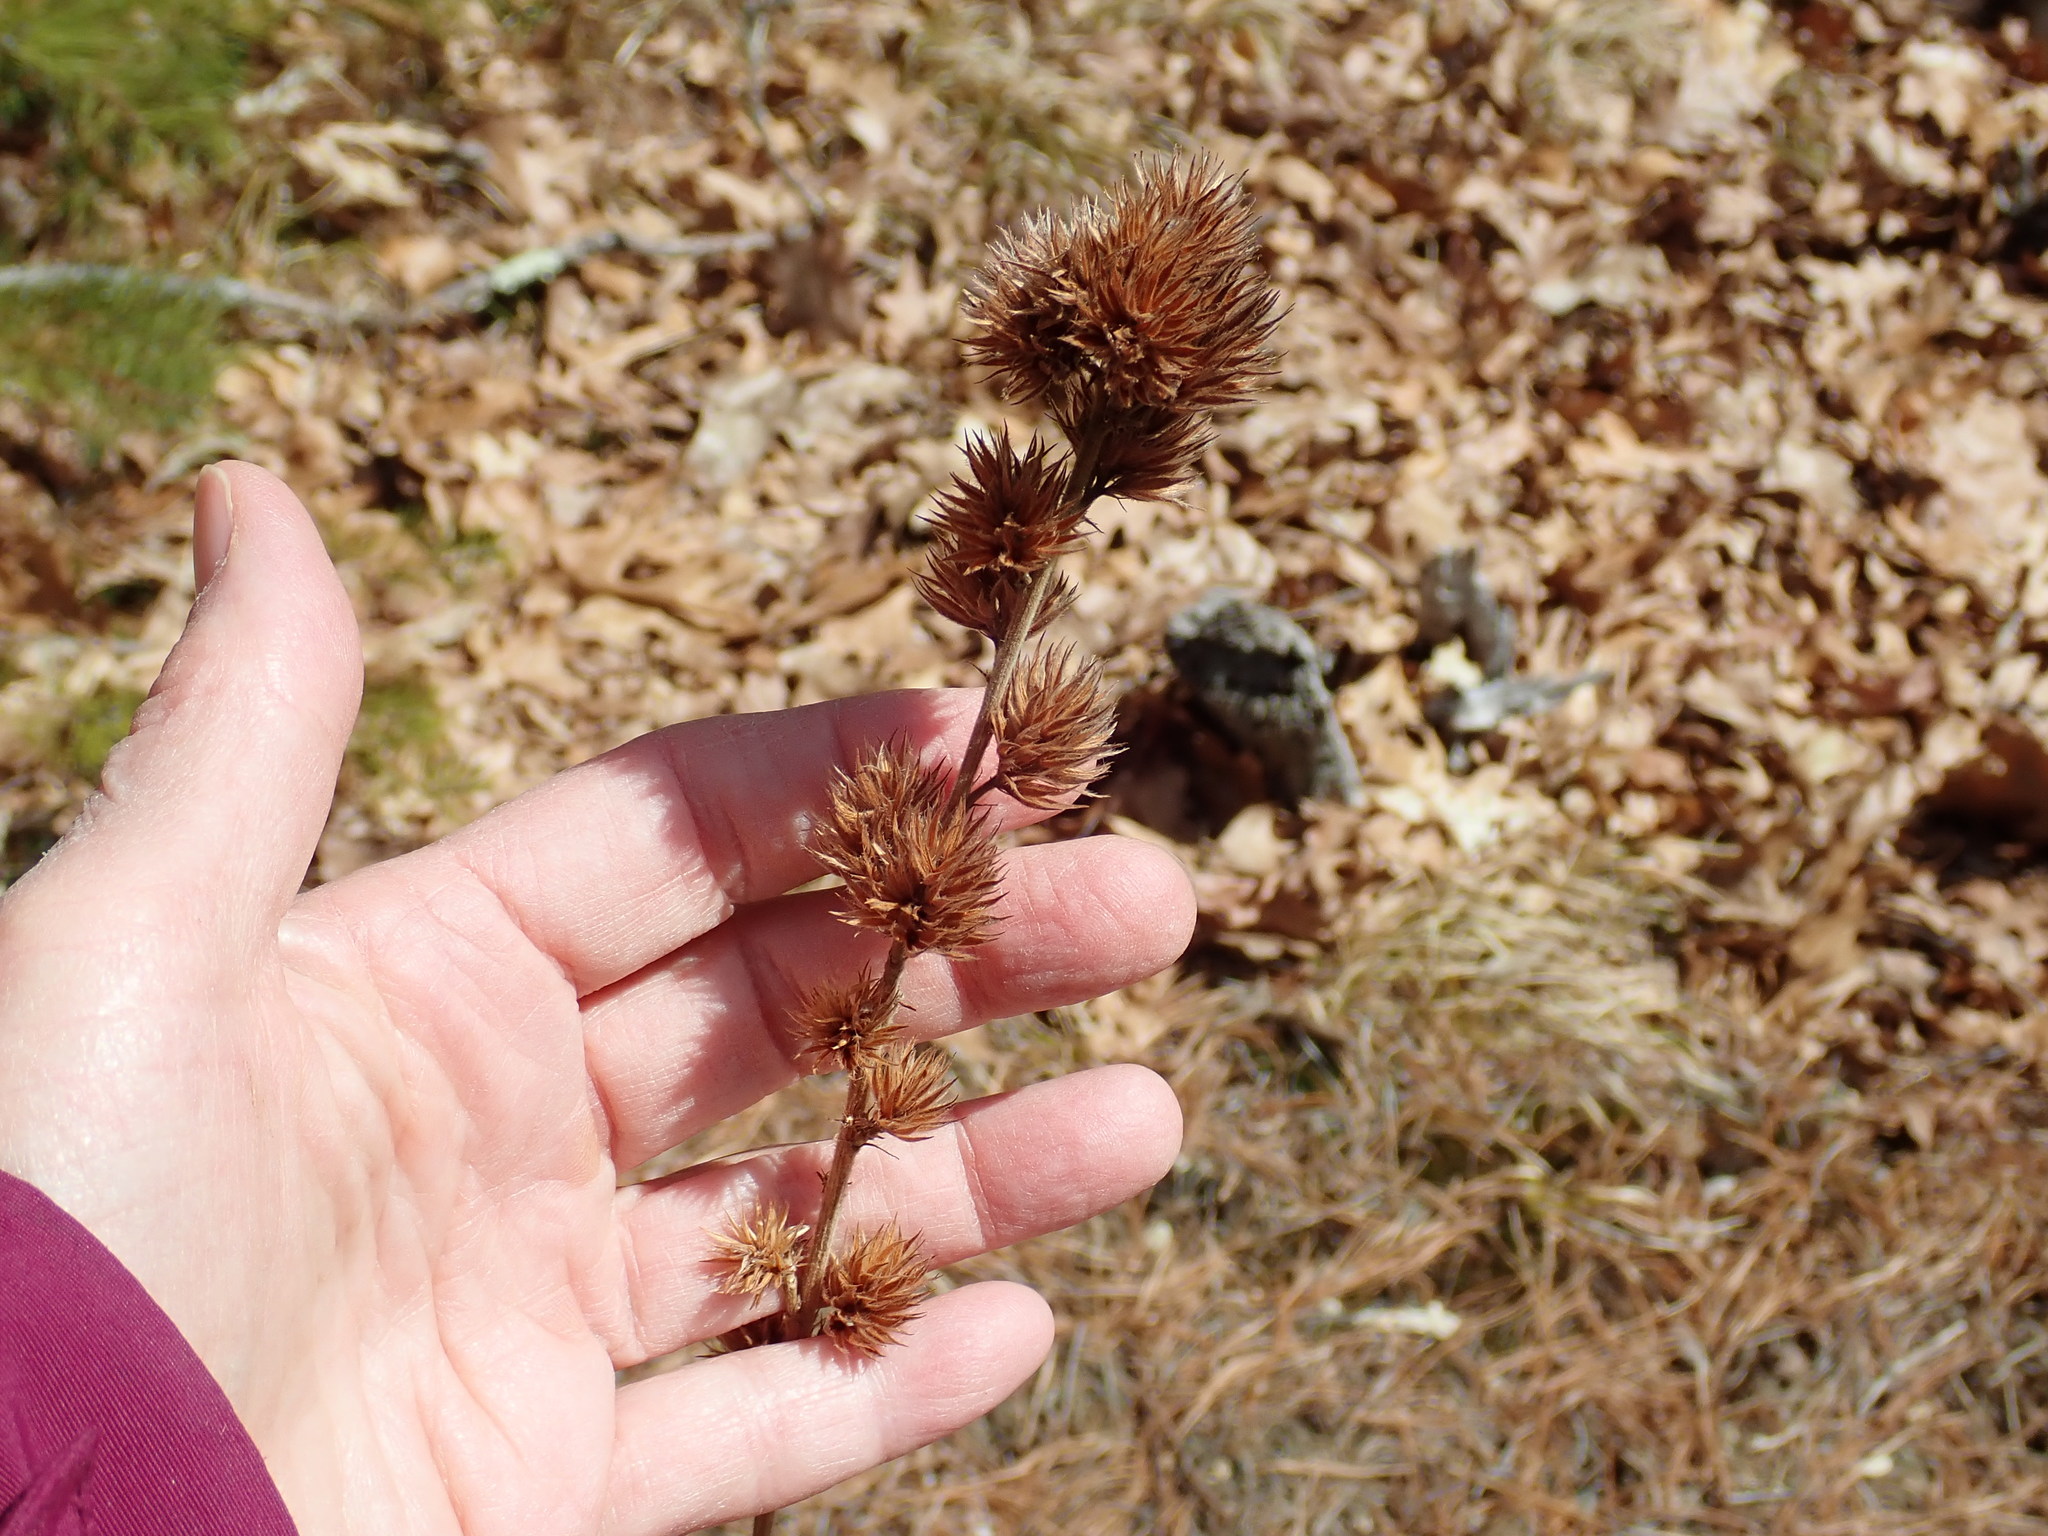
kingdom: Plantae
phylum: Tracheophyta
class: Magnoliopsida
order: Fabales
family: Fabaceae
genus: Lespedeza
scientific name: Lespedeza capitata
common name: Dusty clover
